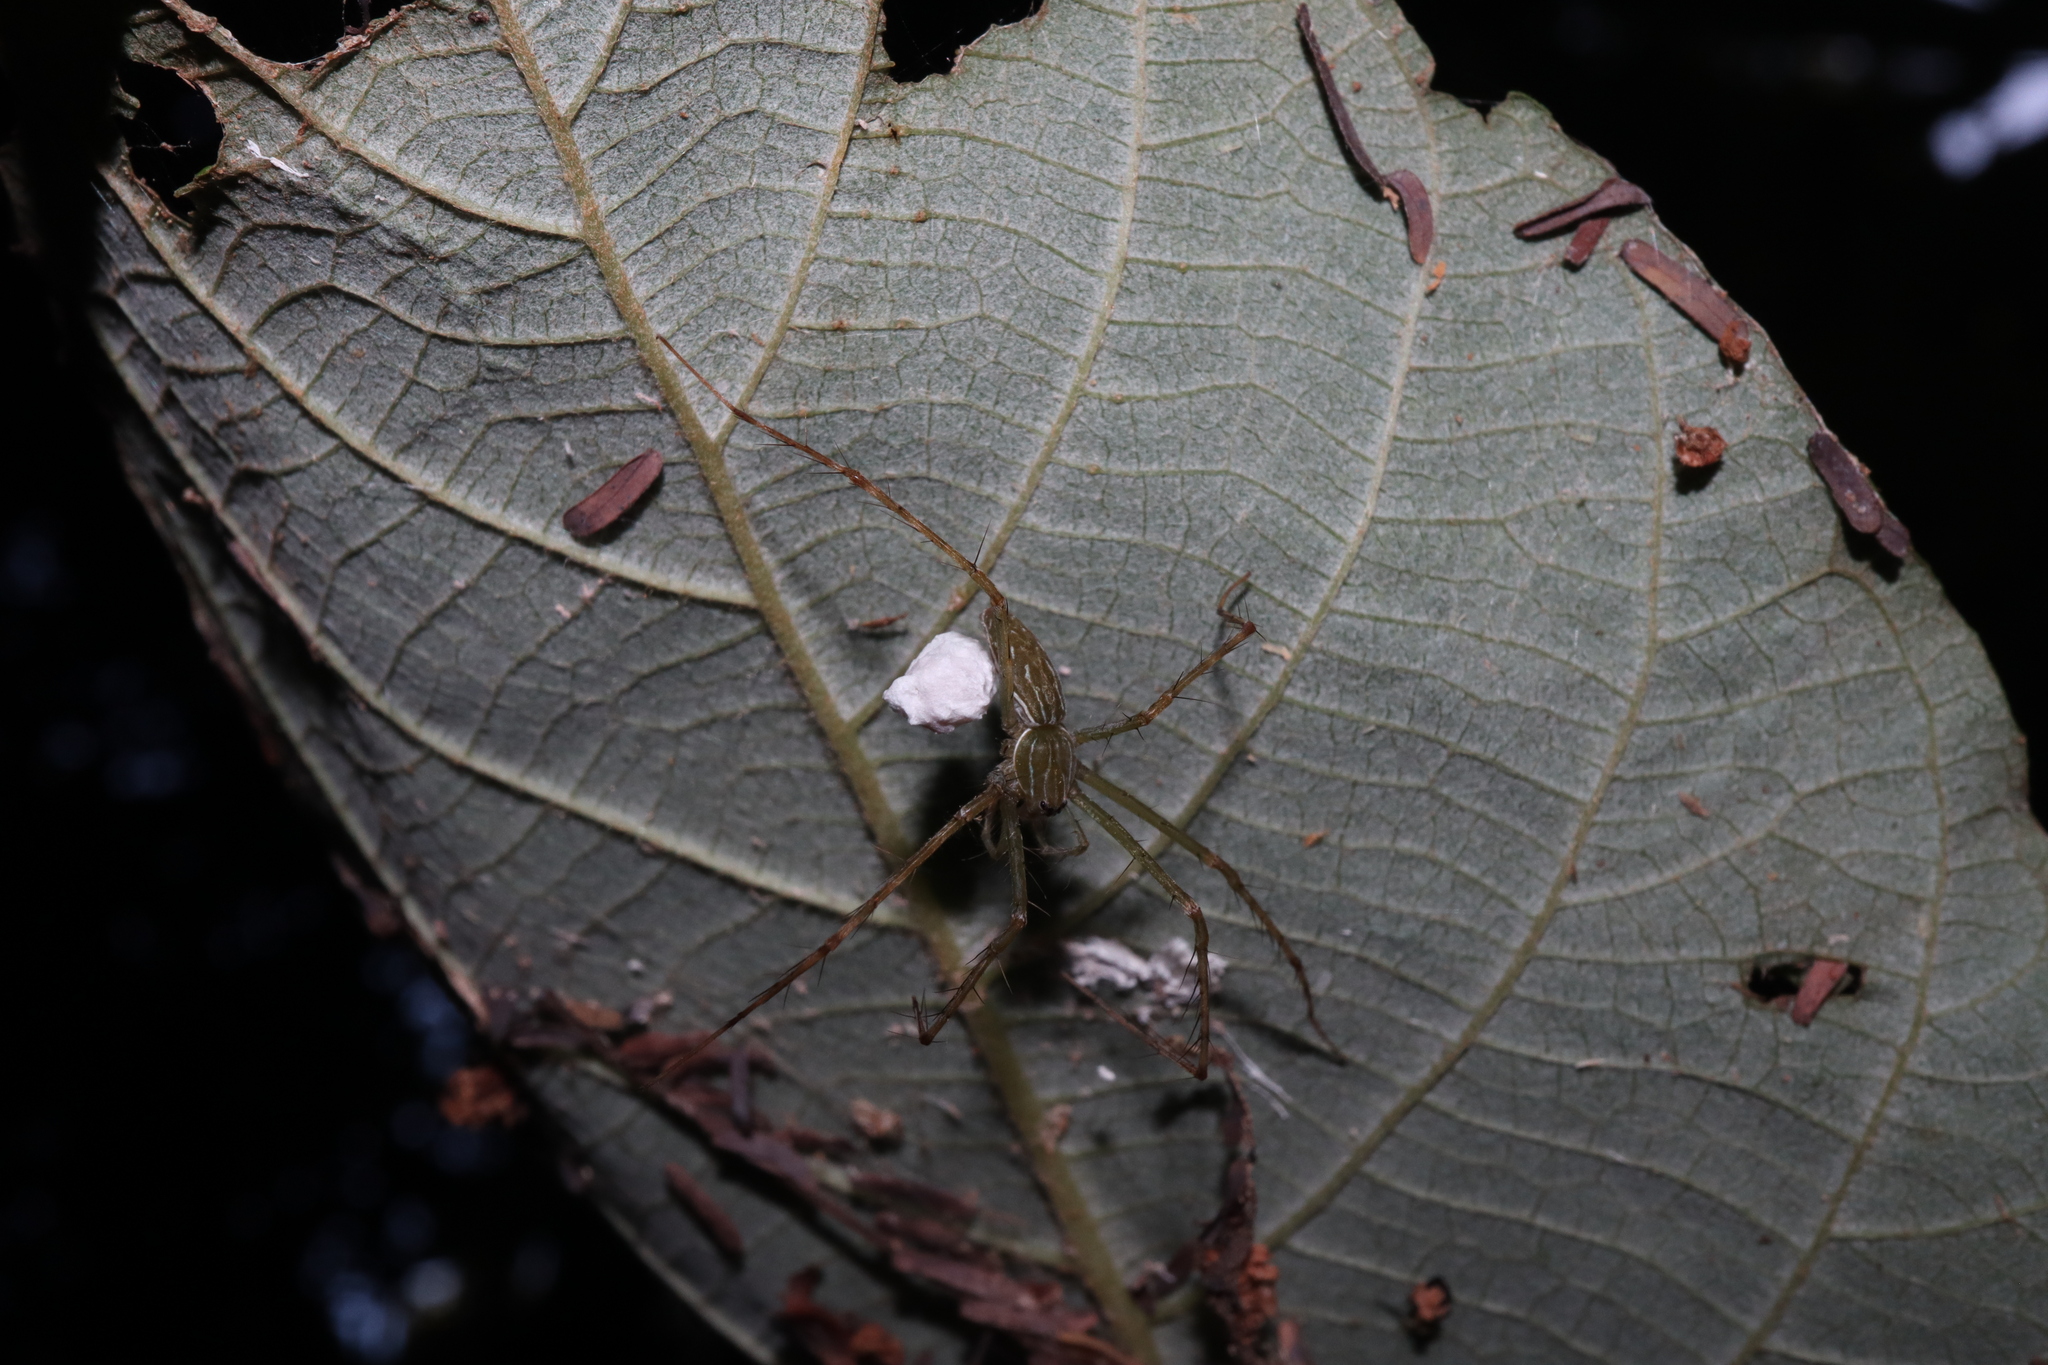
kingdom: Animalia
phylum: Arthropoda
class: Arachnida
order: Araneae
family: Pisauridae
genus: Hygropoda
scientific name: Hygropoda lineata
